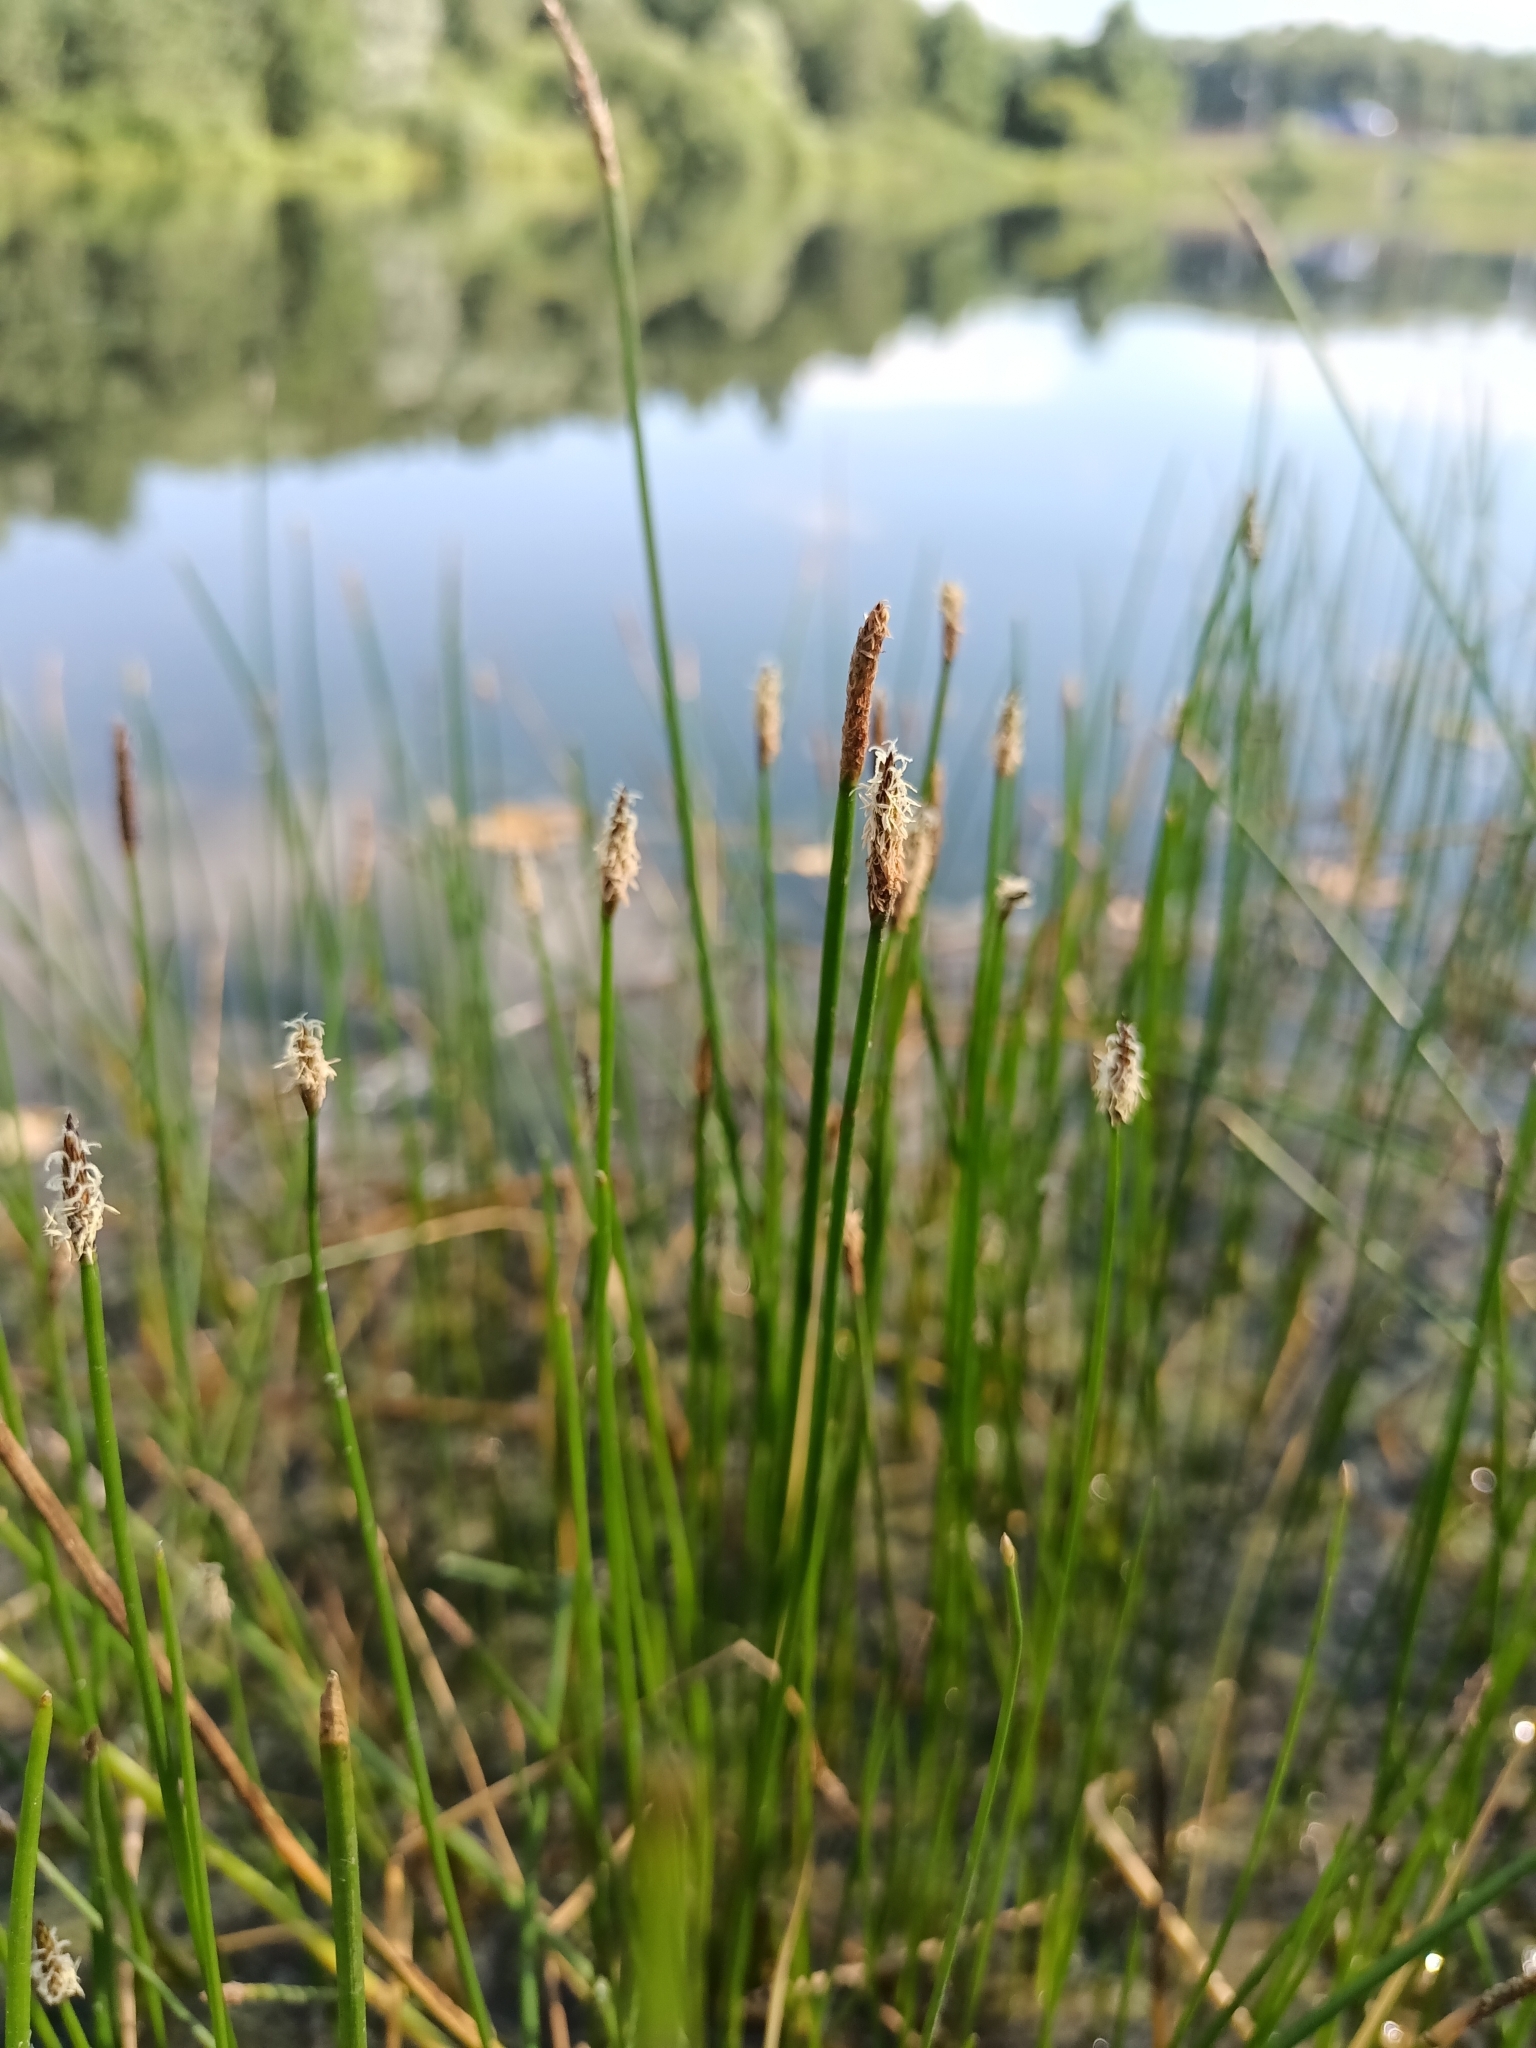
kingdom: Plantae
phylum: Tracheophyta
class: Liliopsida
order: Poales
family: Cyperaceae
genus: Eleocharis
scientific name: Eleocharis palustris
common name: Common spike-rush
